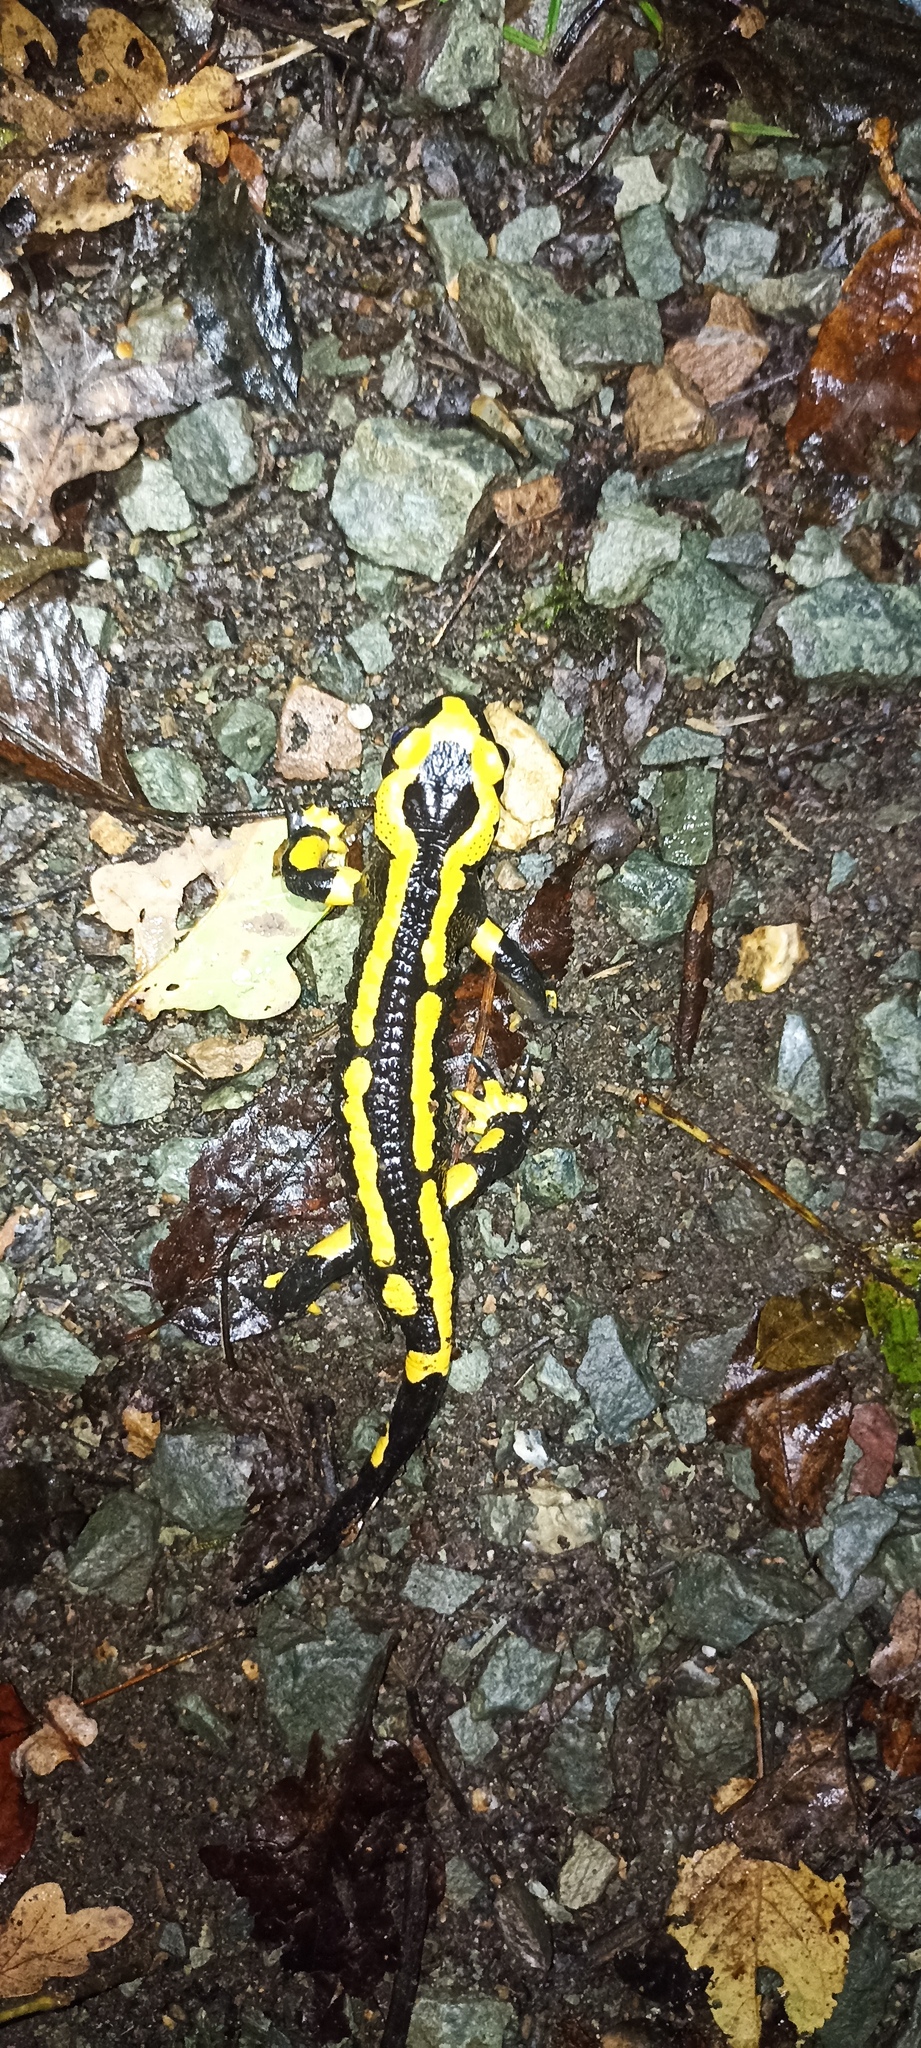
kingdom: Animalia
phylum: Chordata
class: Amphibia
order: Caudata
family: Salamandridae
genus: Salamandra
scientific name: Salamandra salamandra
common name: Fire salamander
